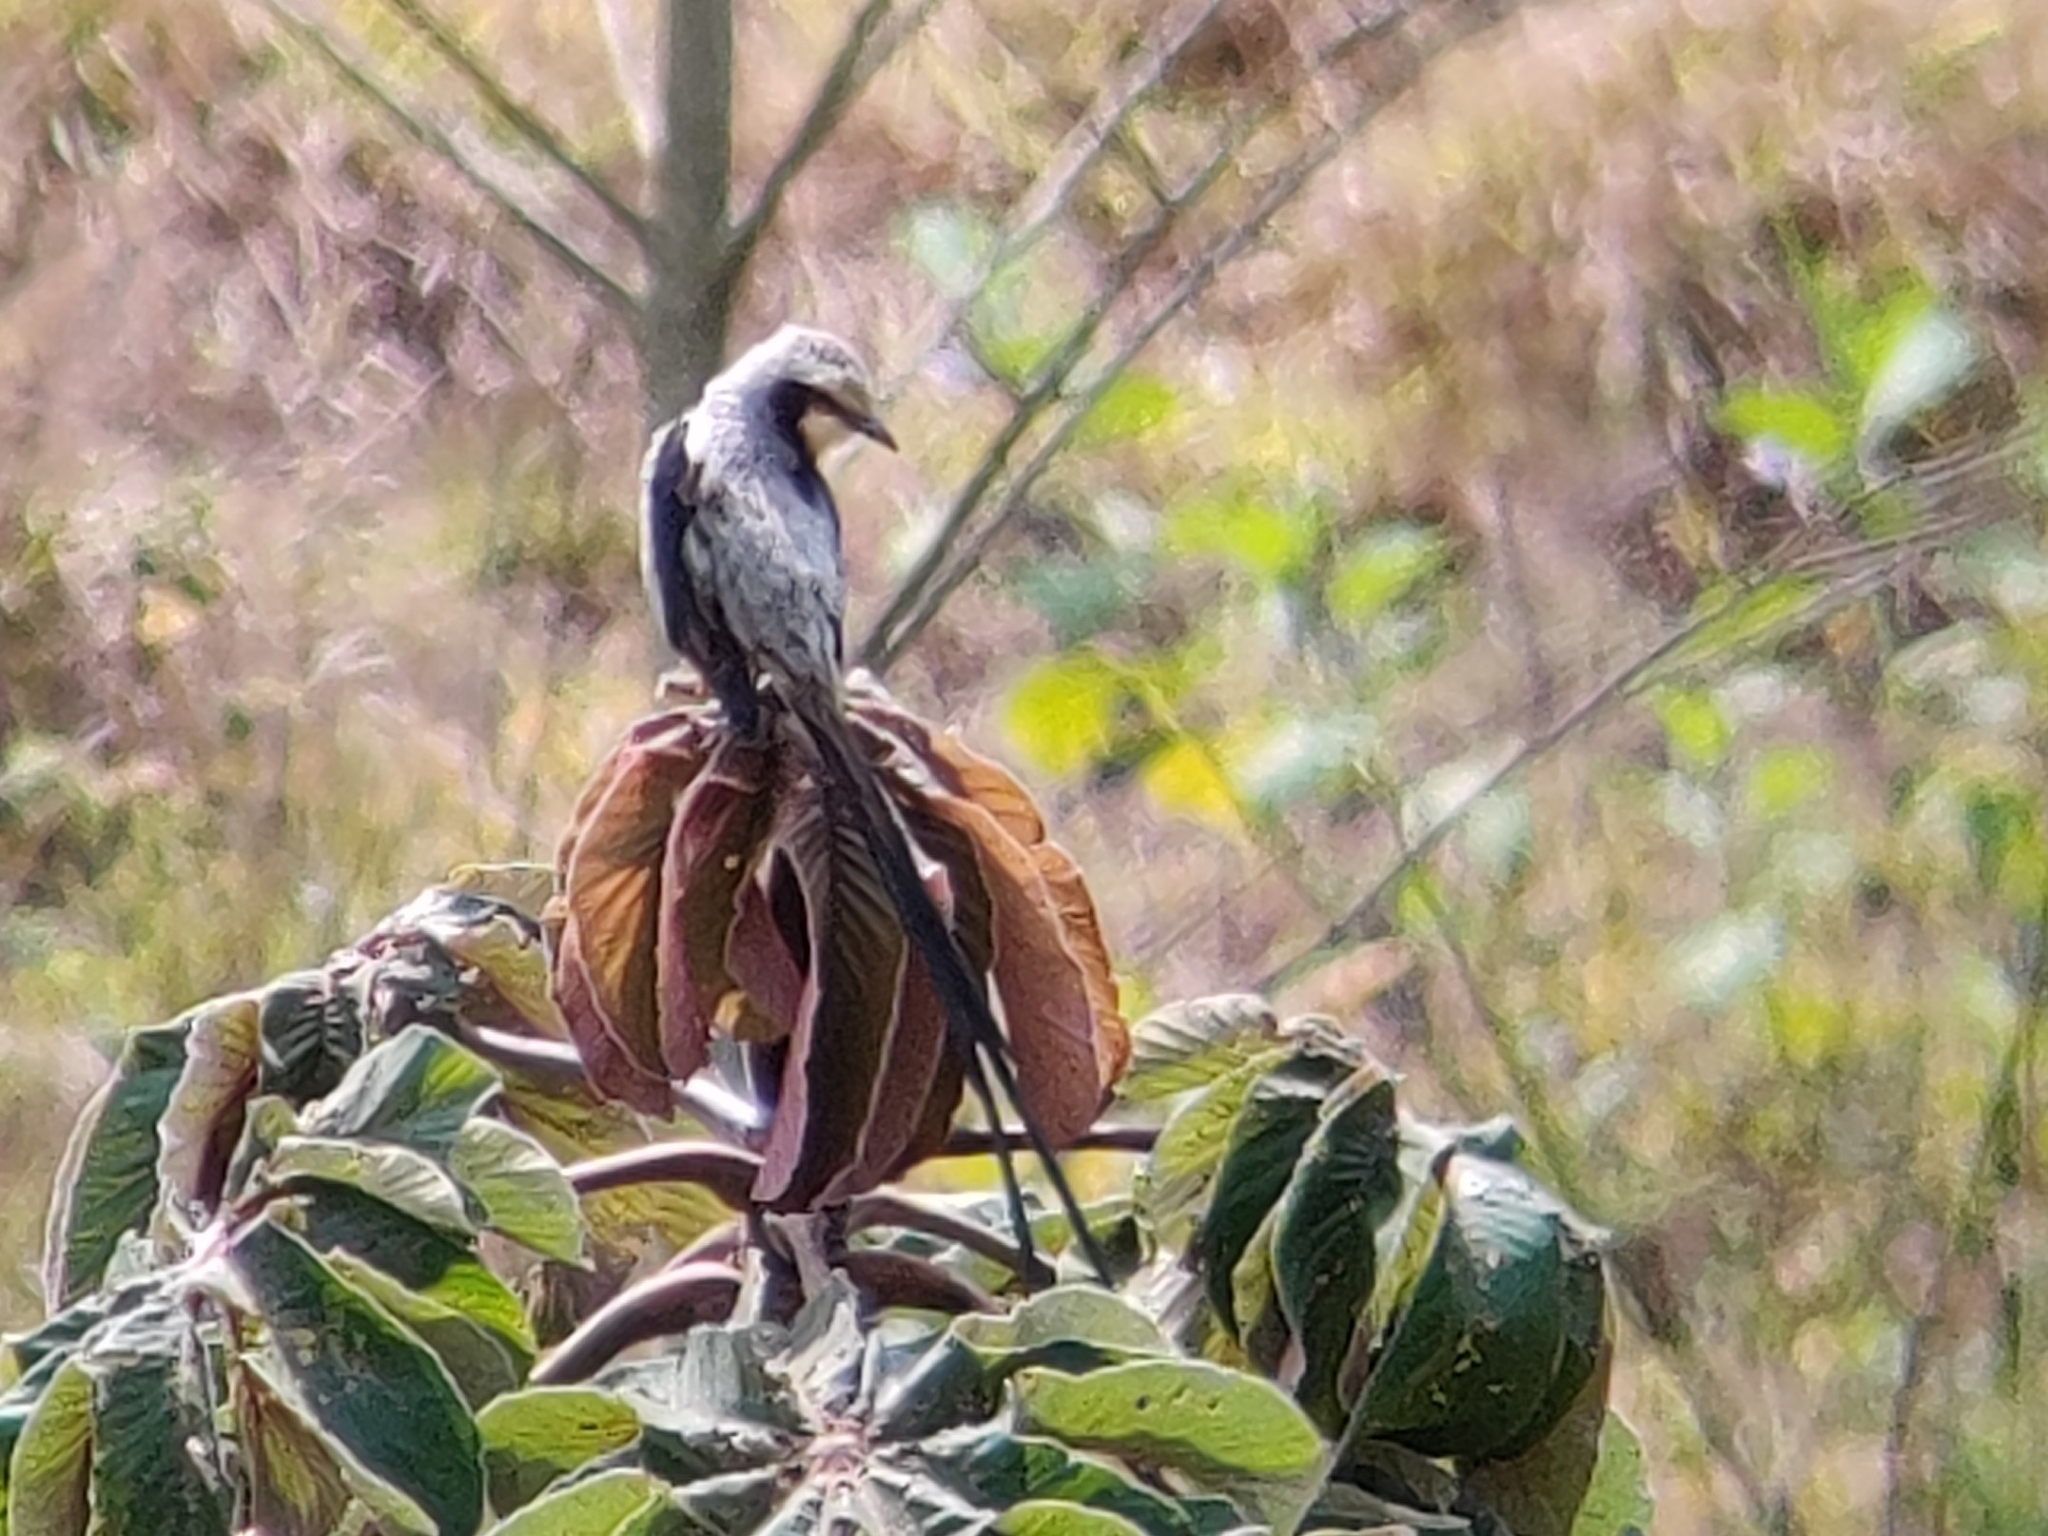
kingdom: Animalia
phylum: Chordata
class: Aves
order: Passeriformes
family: Tyrannidae
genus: Gubernetes
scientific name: Gubernetes yetapa
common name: Streamer-tailed tyrant
